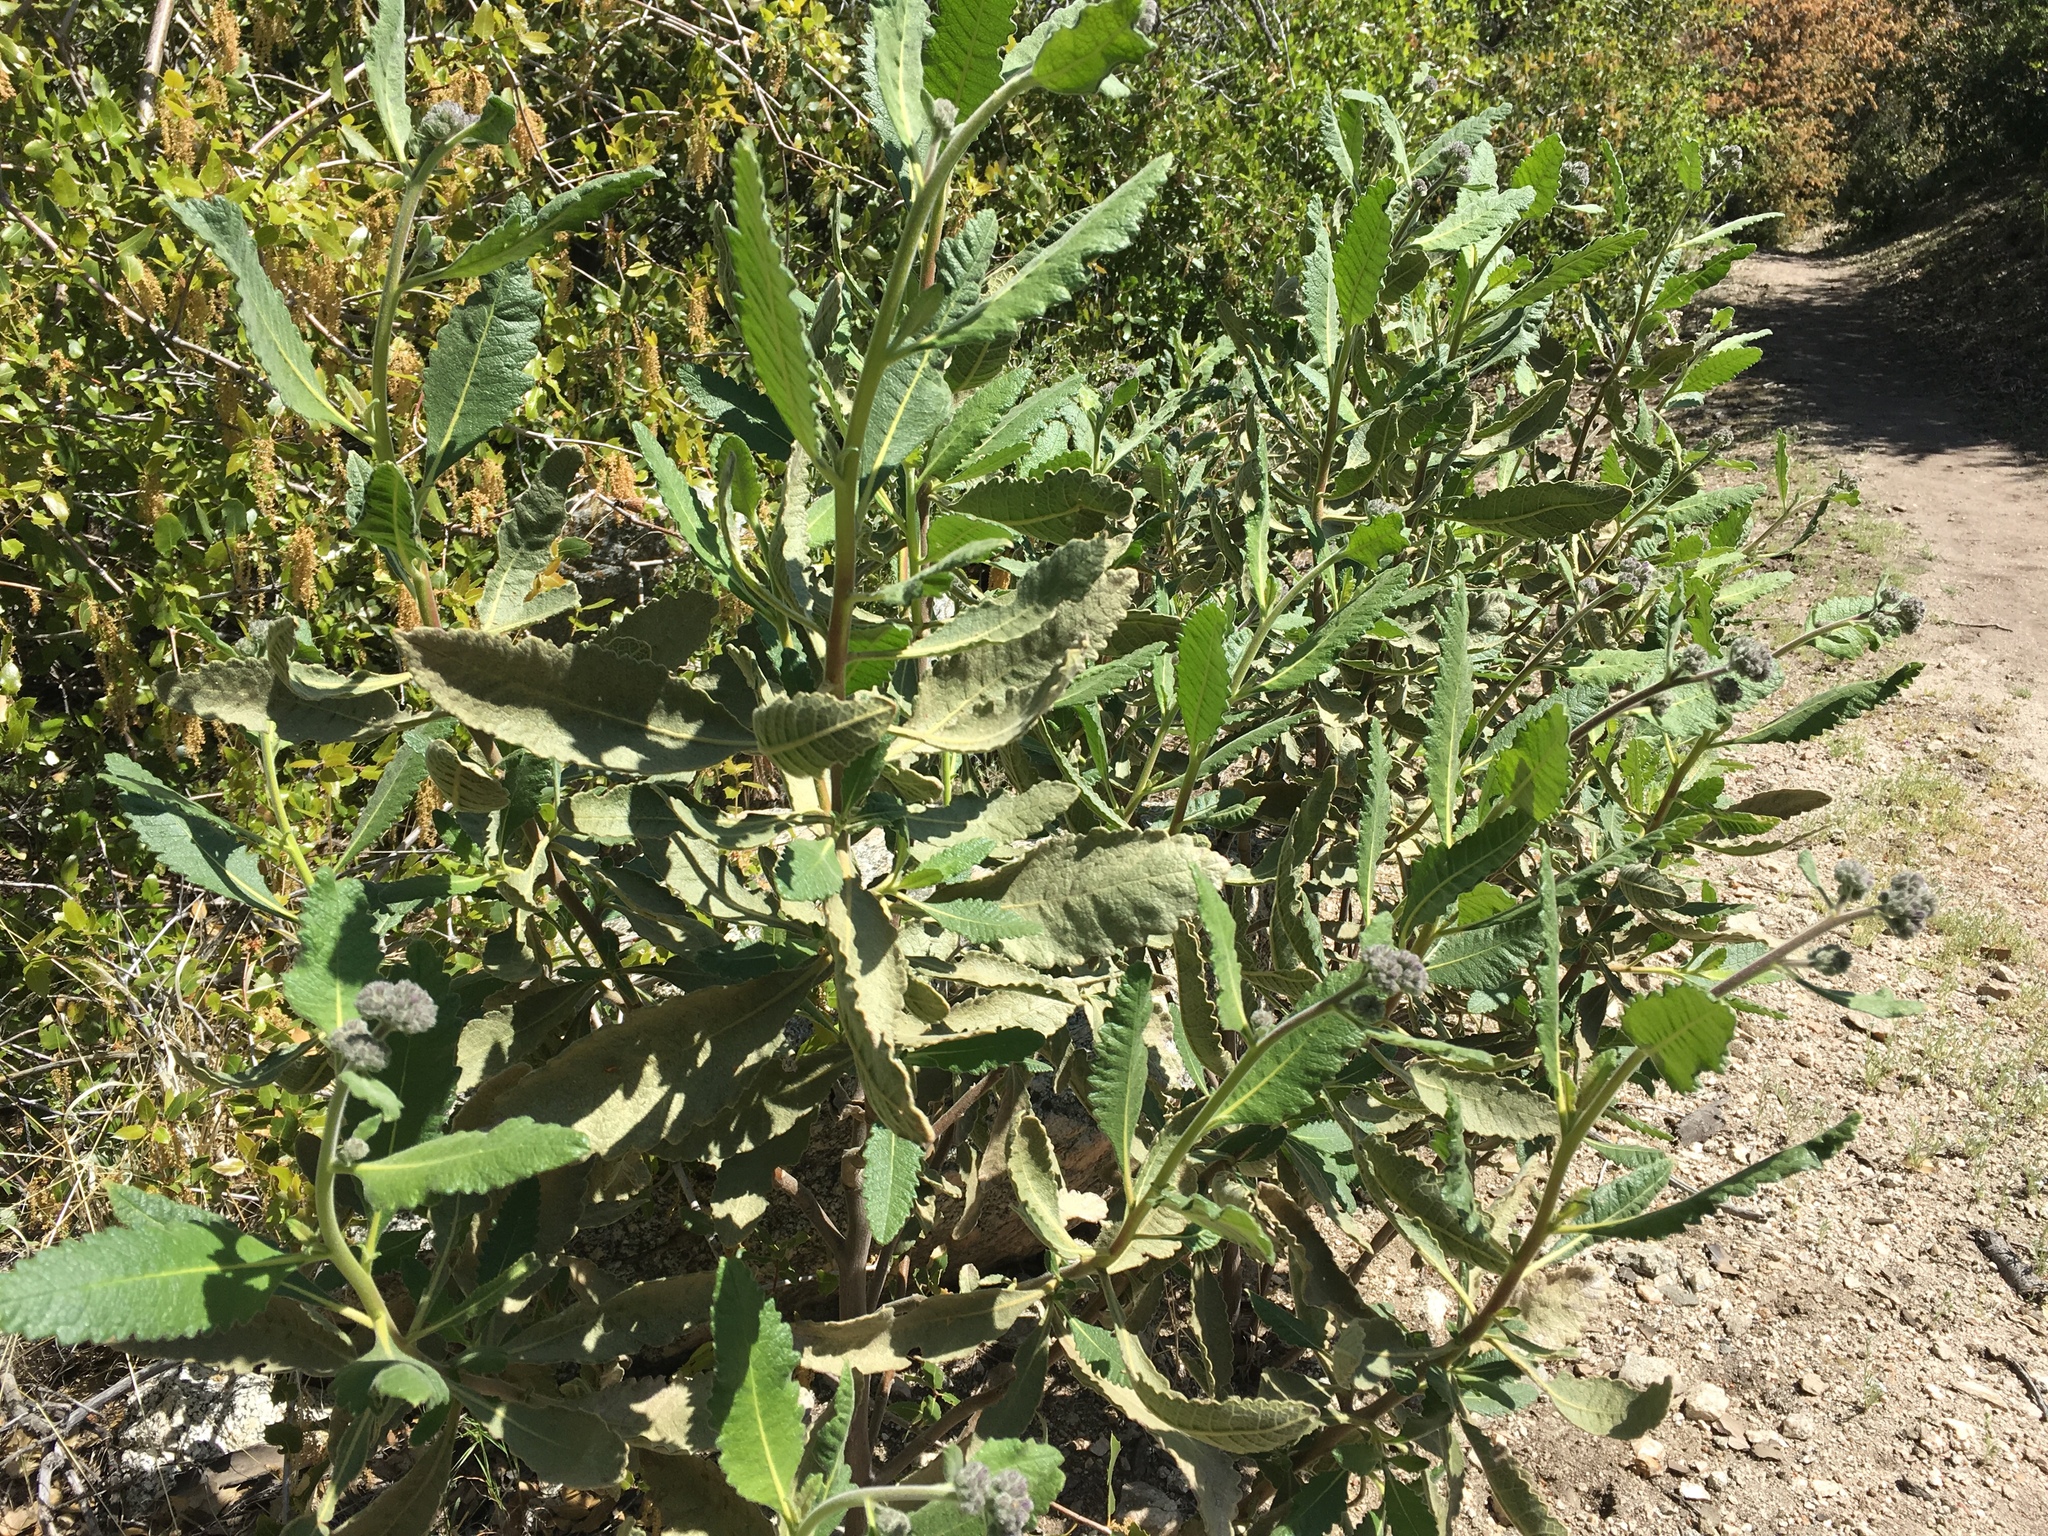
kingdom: Plantae
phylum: Tracheophyta
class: Magnoliopsida
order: Boraginales
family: Namaceae
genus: Eriodictyon
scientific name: Eriodictyon crassifolium
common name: Thick-leaf yerba-santa
